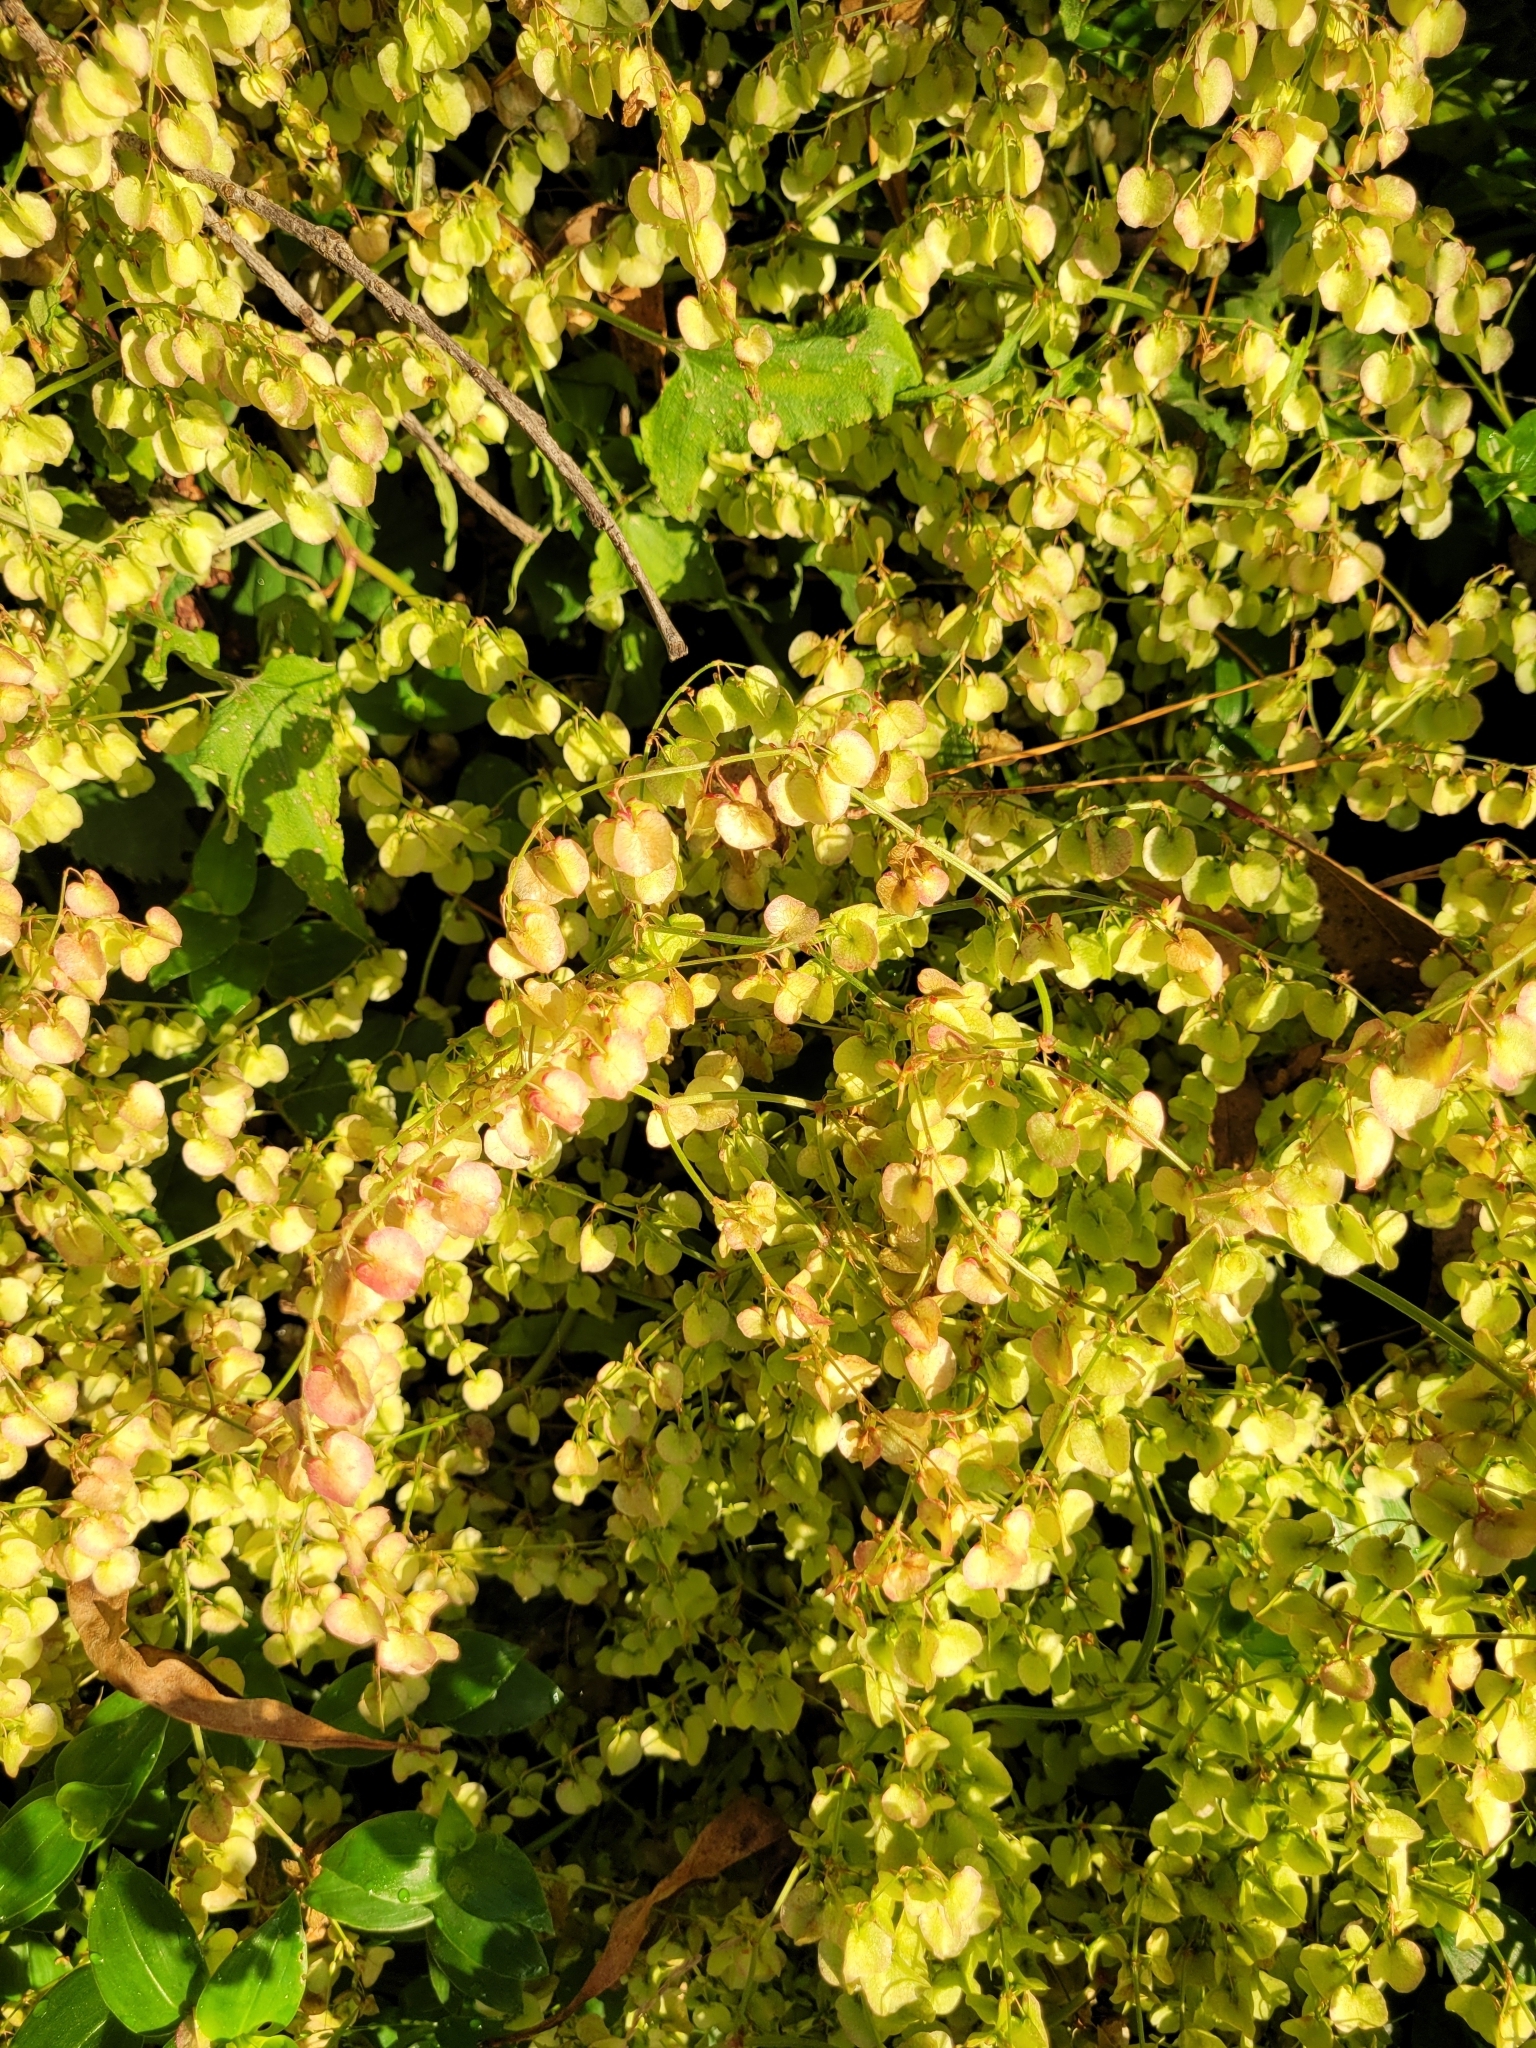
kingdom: Plantae
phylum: Tracheophyta
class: Magnoliopsida
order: Caryophyllales
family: Polygonaceae
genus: Rumex
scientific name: Rumex sagittatus
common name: Climbing dock
